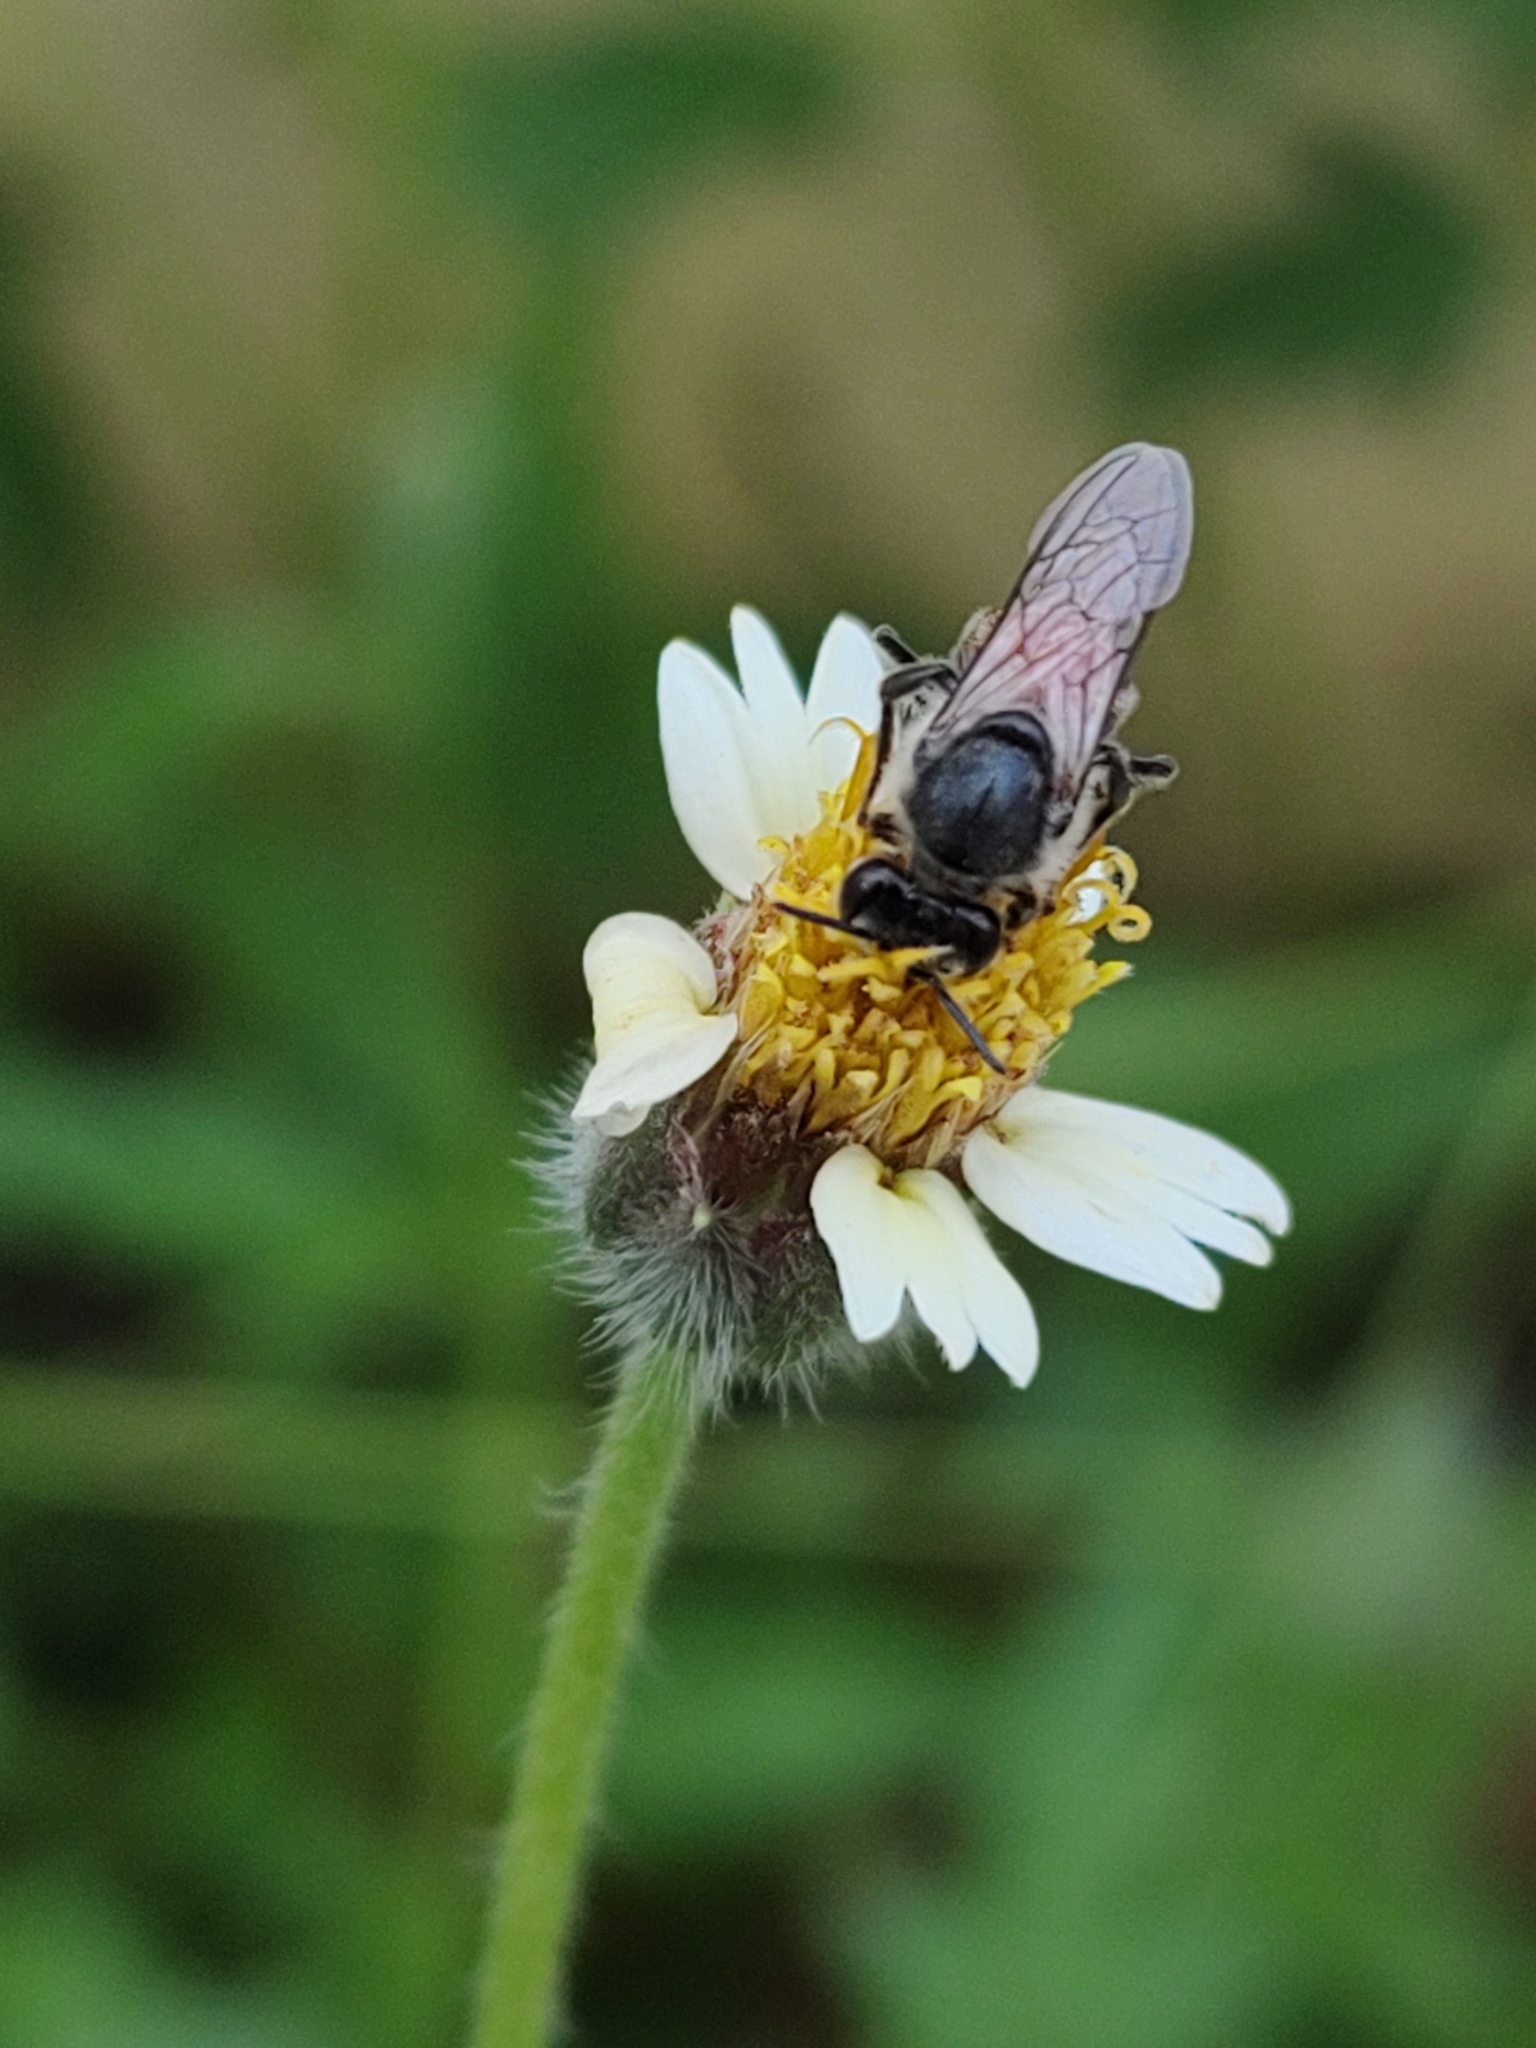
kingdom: Animalia
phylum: Arthropoda
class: Insecta
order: Hymenoptera
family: Apidae
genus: Apis
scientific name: Apis florea
